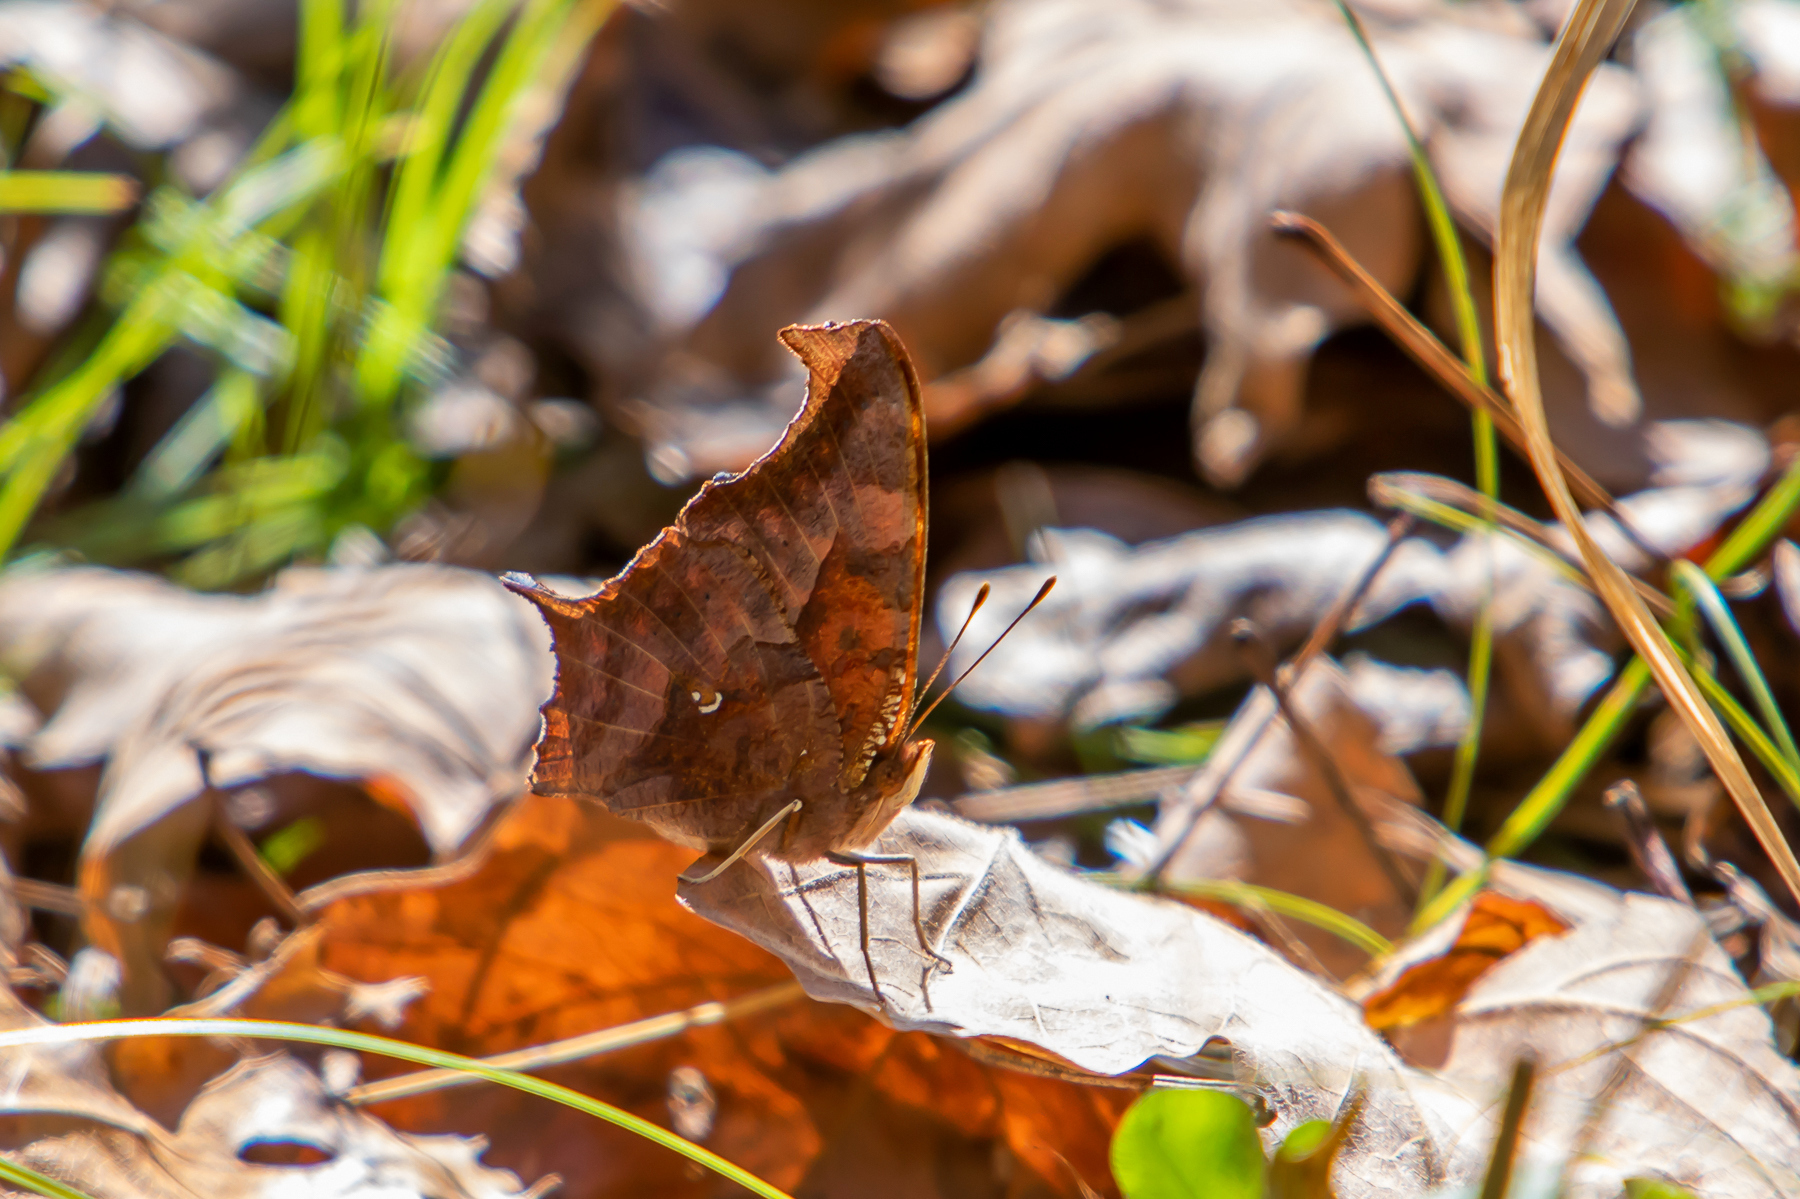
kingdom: Animalia
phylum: Arthropoda
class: Insecta
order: Lepidoptera
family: Nymphalidae
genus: Polygonia
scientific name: Polygonia interrogationis
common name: Question mark
